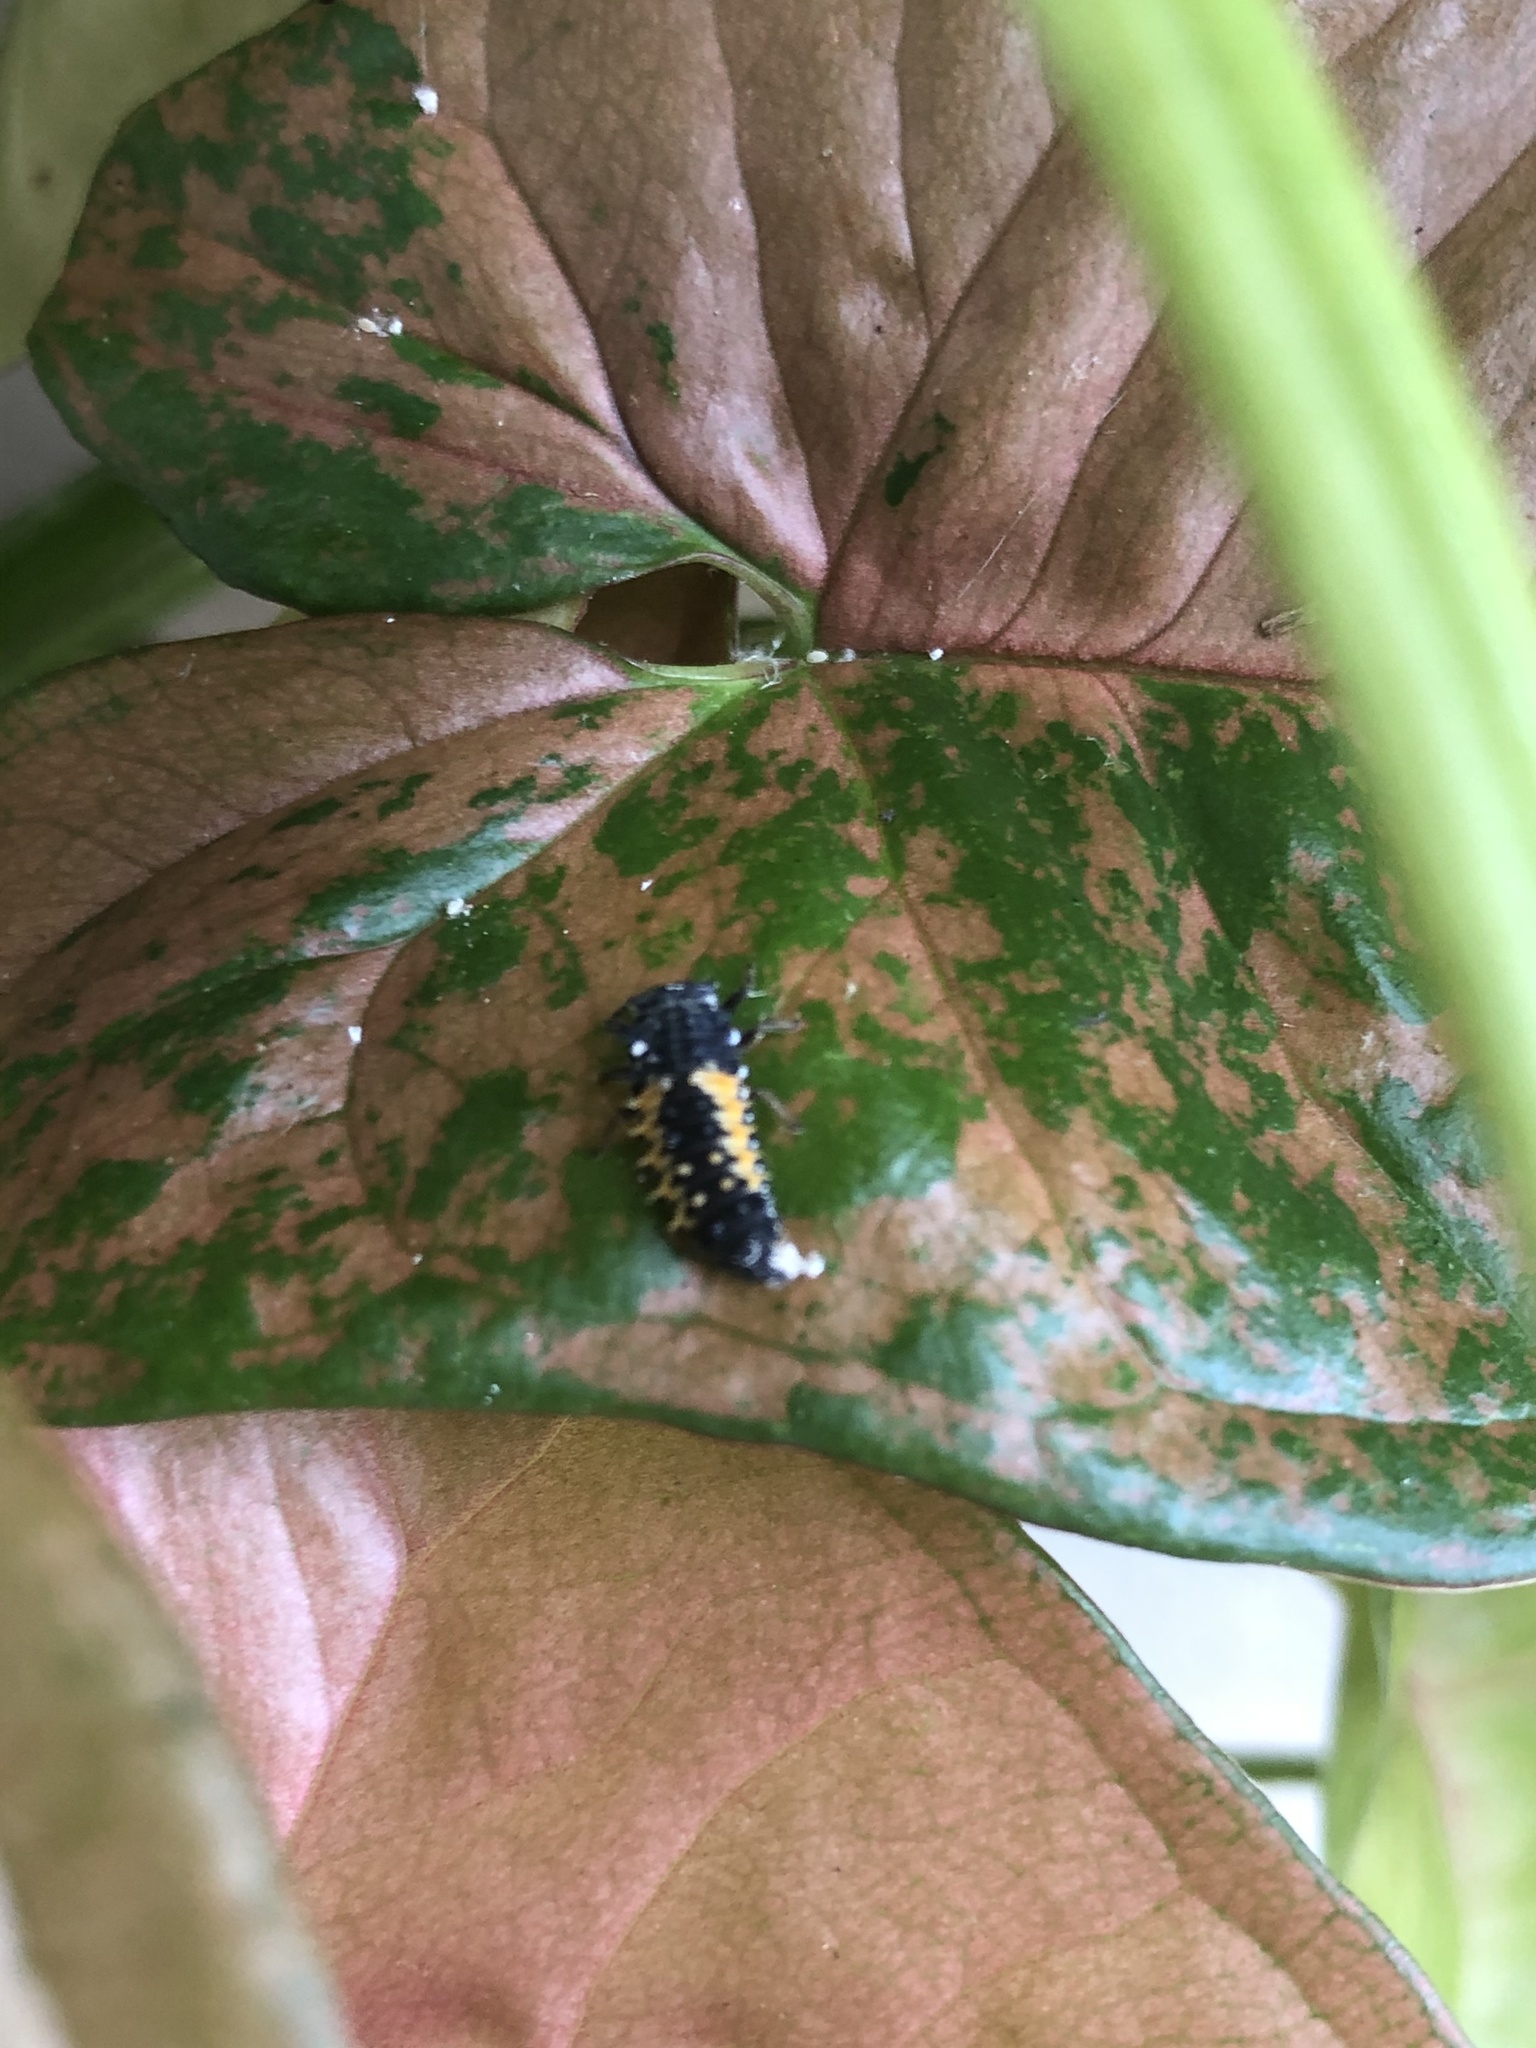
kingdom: Animalia
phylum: Arthropoda
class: Insecta
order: Coleoptera
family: Coccinellidae
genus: Harmonia
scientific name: Harmonia axyridis
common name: Harlequin ladybird
